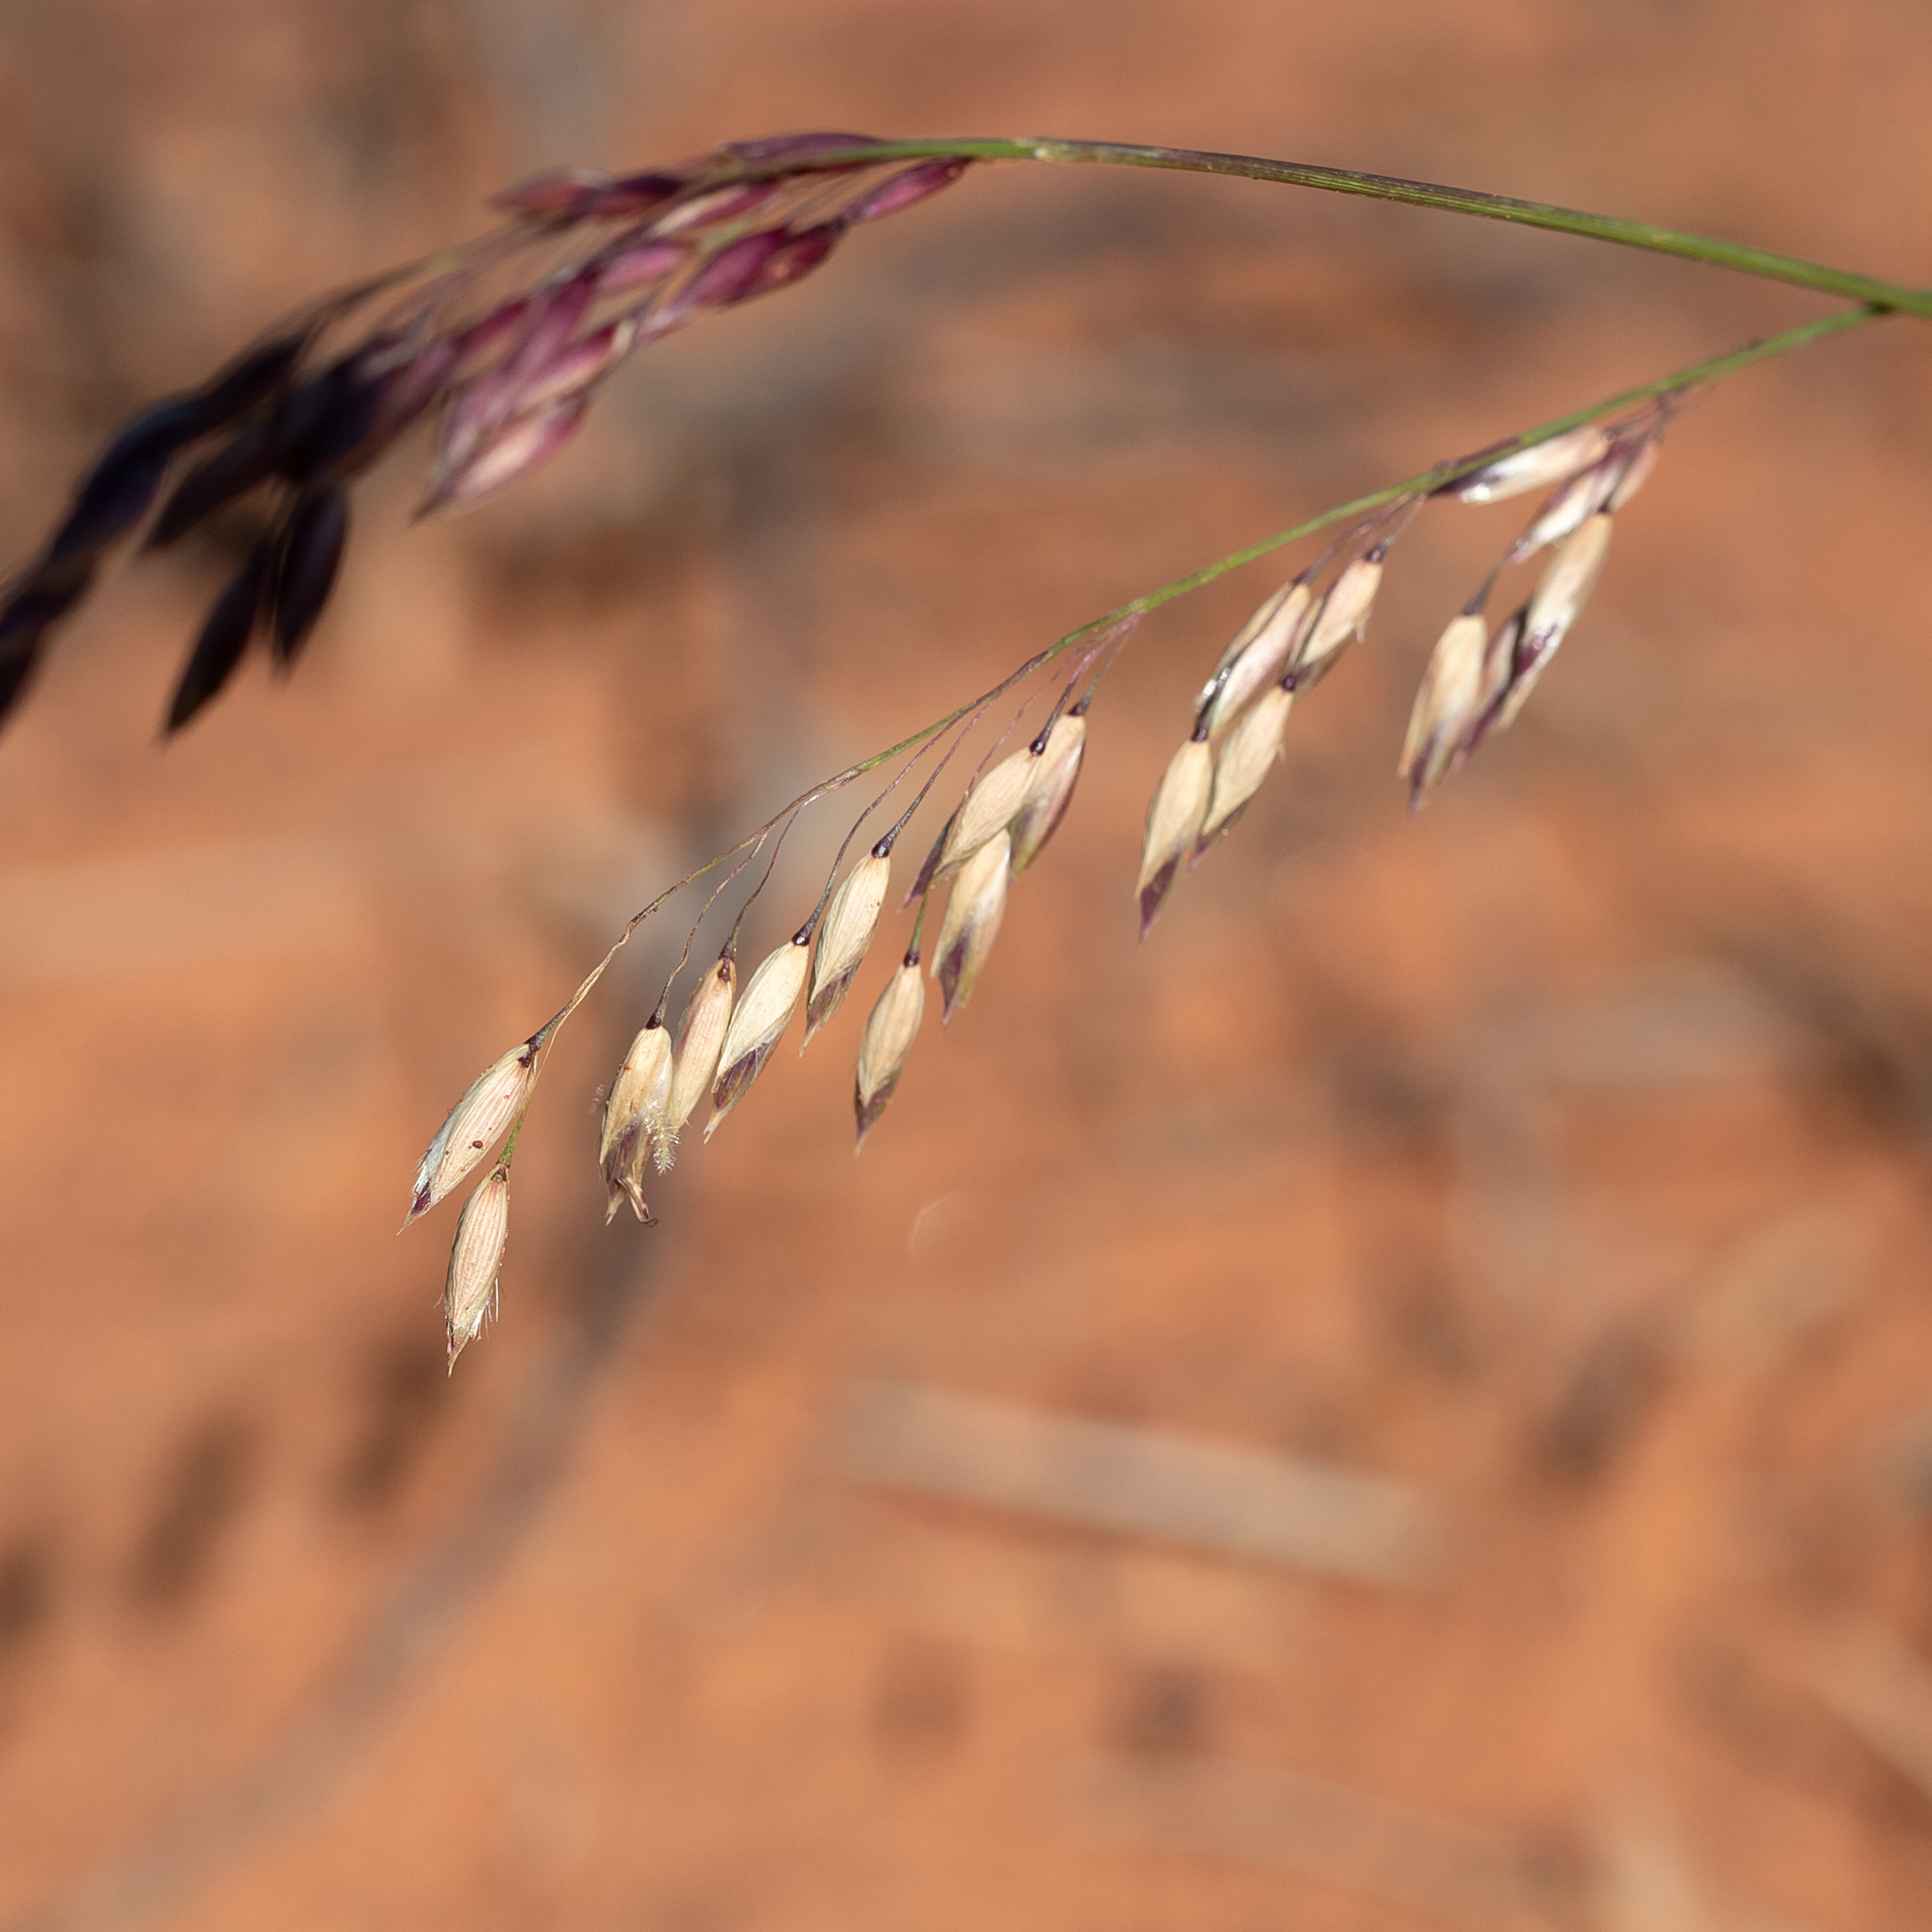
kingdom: Plantae
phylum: Tracheophyta
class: Liliopsida
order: Poales
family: Poaceae
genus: Eriachne
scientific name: Eriachne mucronata
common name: Mountain wanderrie grass
